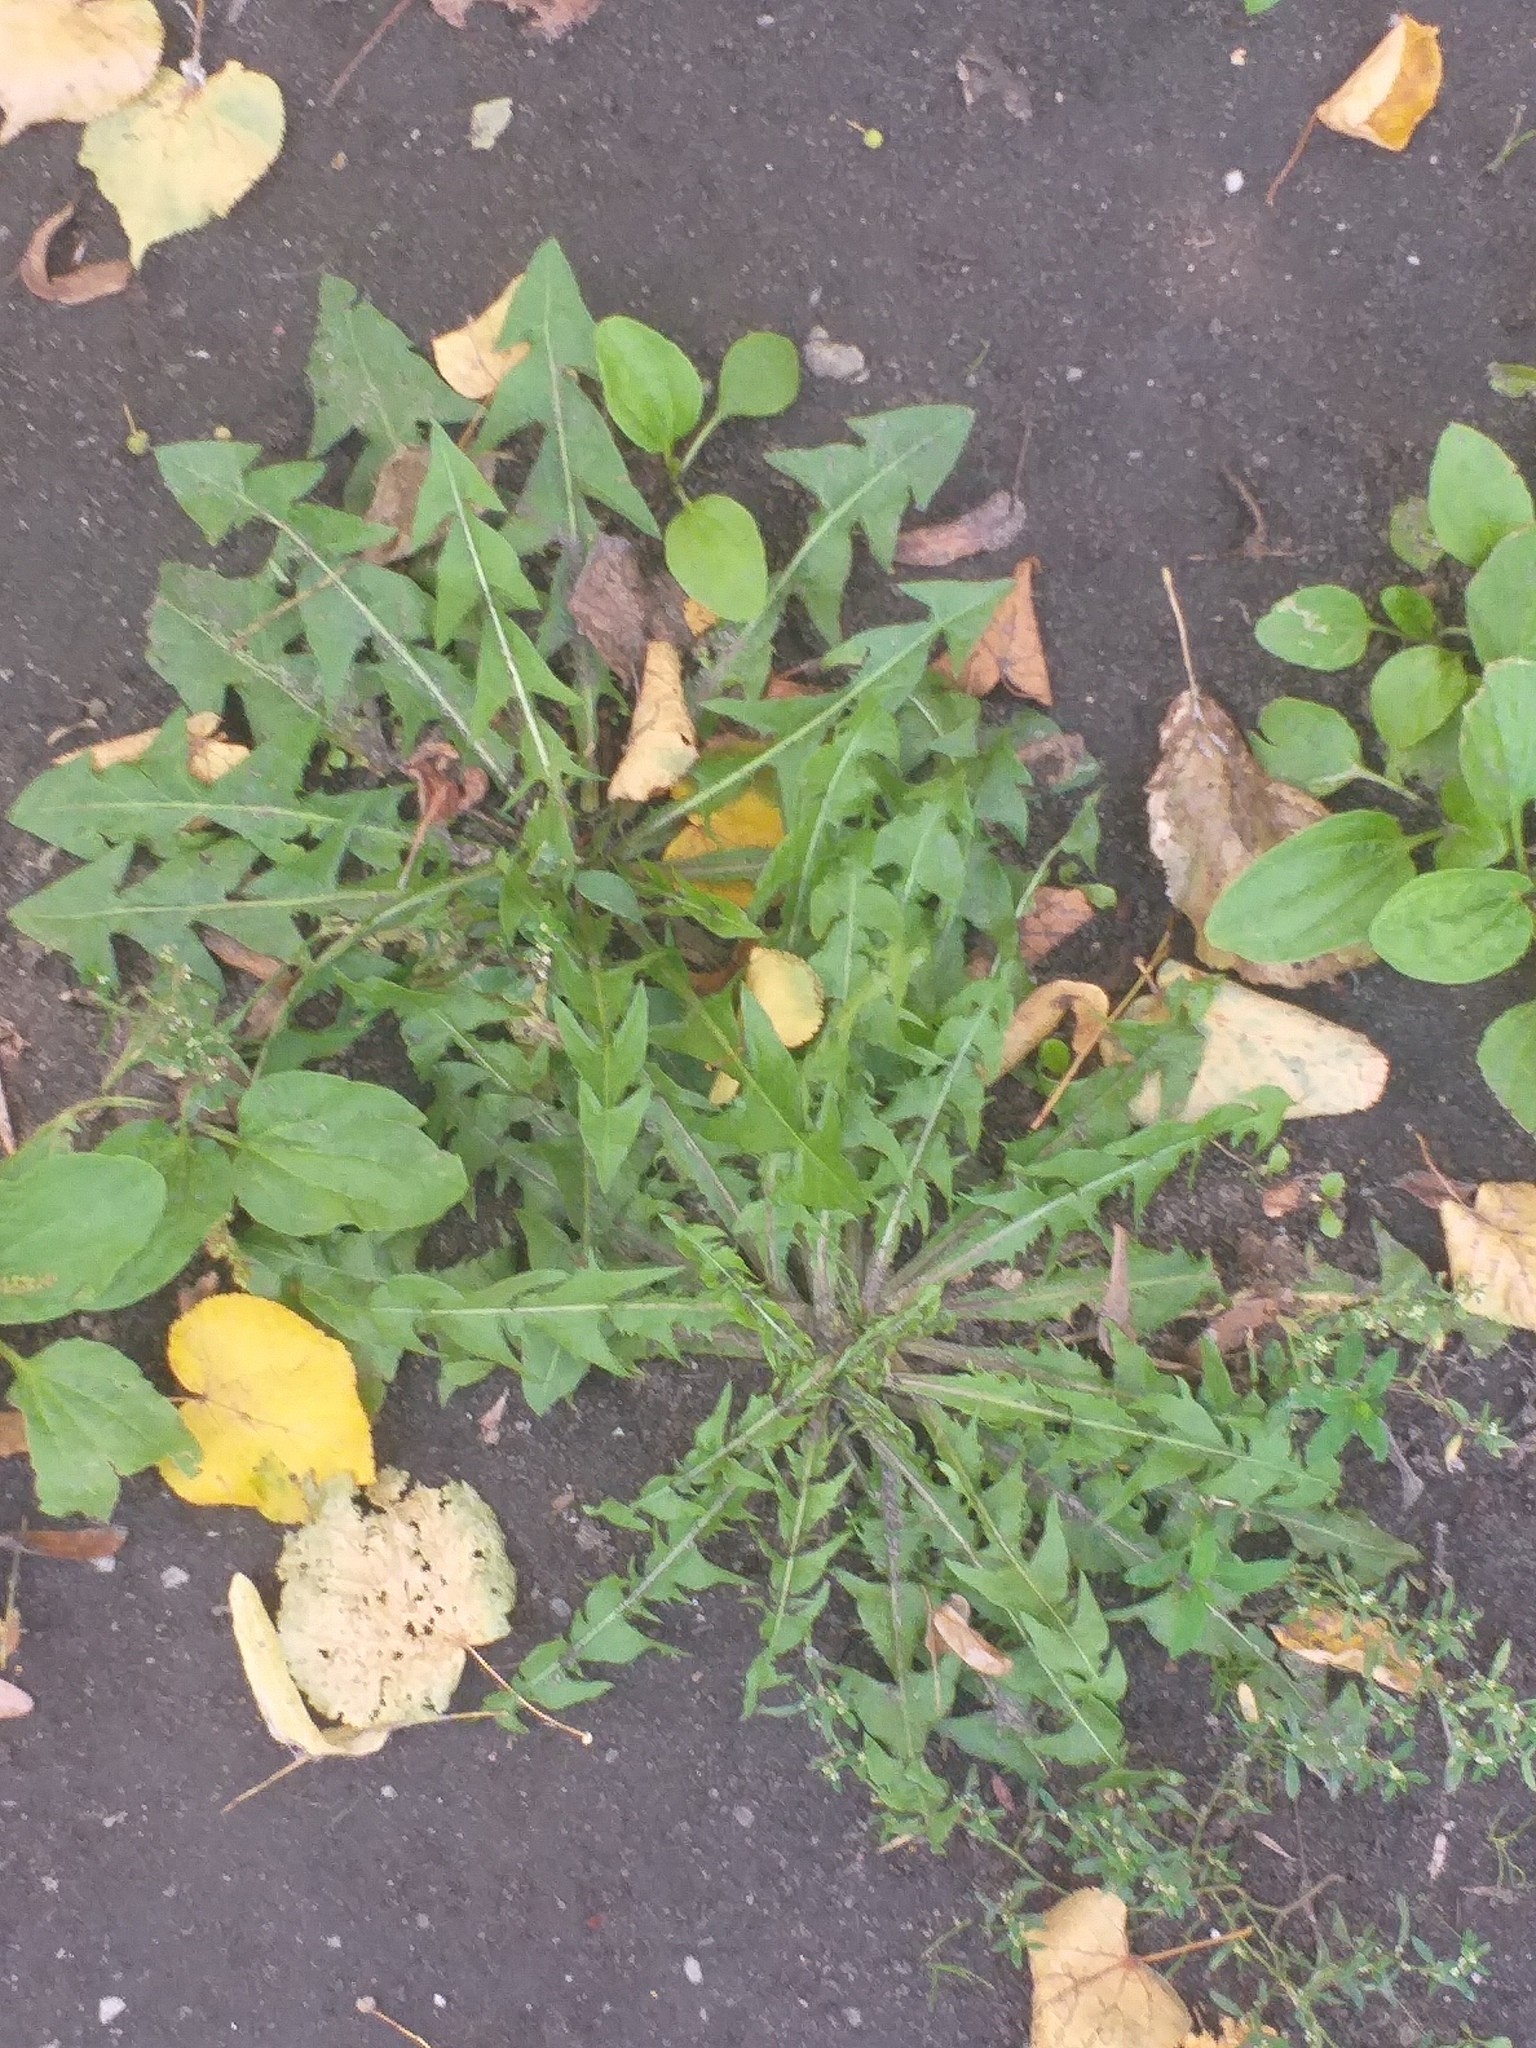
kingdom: Plantae
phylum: Tracheophyta
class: Magnoliopsida
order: Asterales
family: Asteraceae
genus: Taraxacum
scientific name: Taraxacum officinale
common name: Common dandelion
